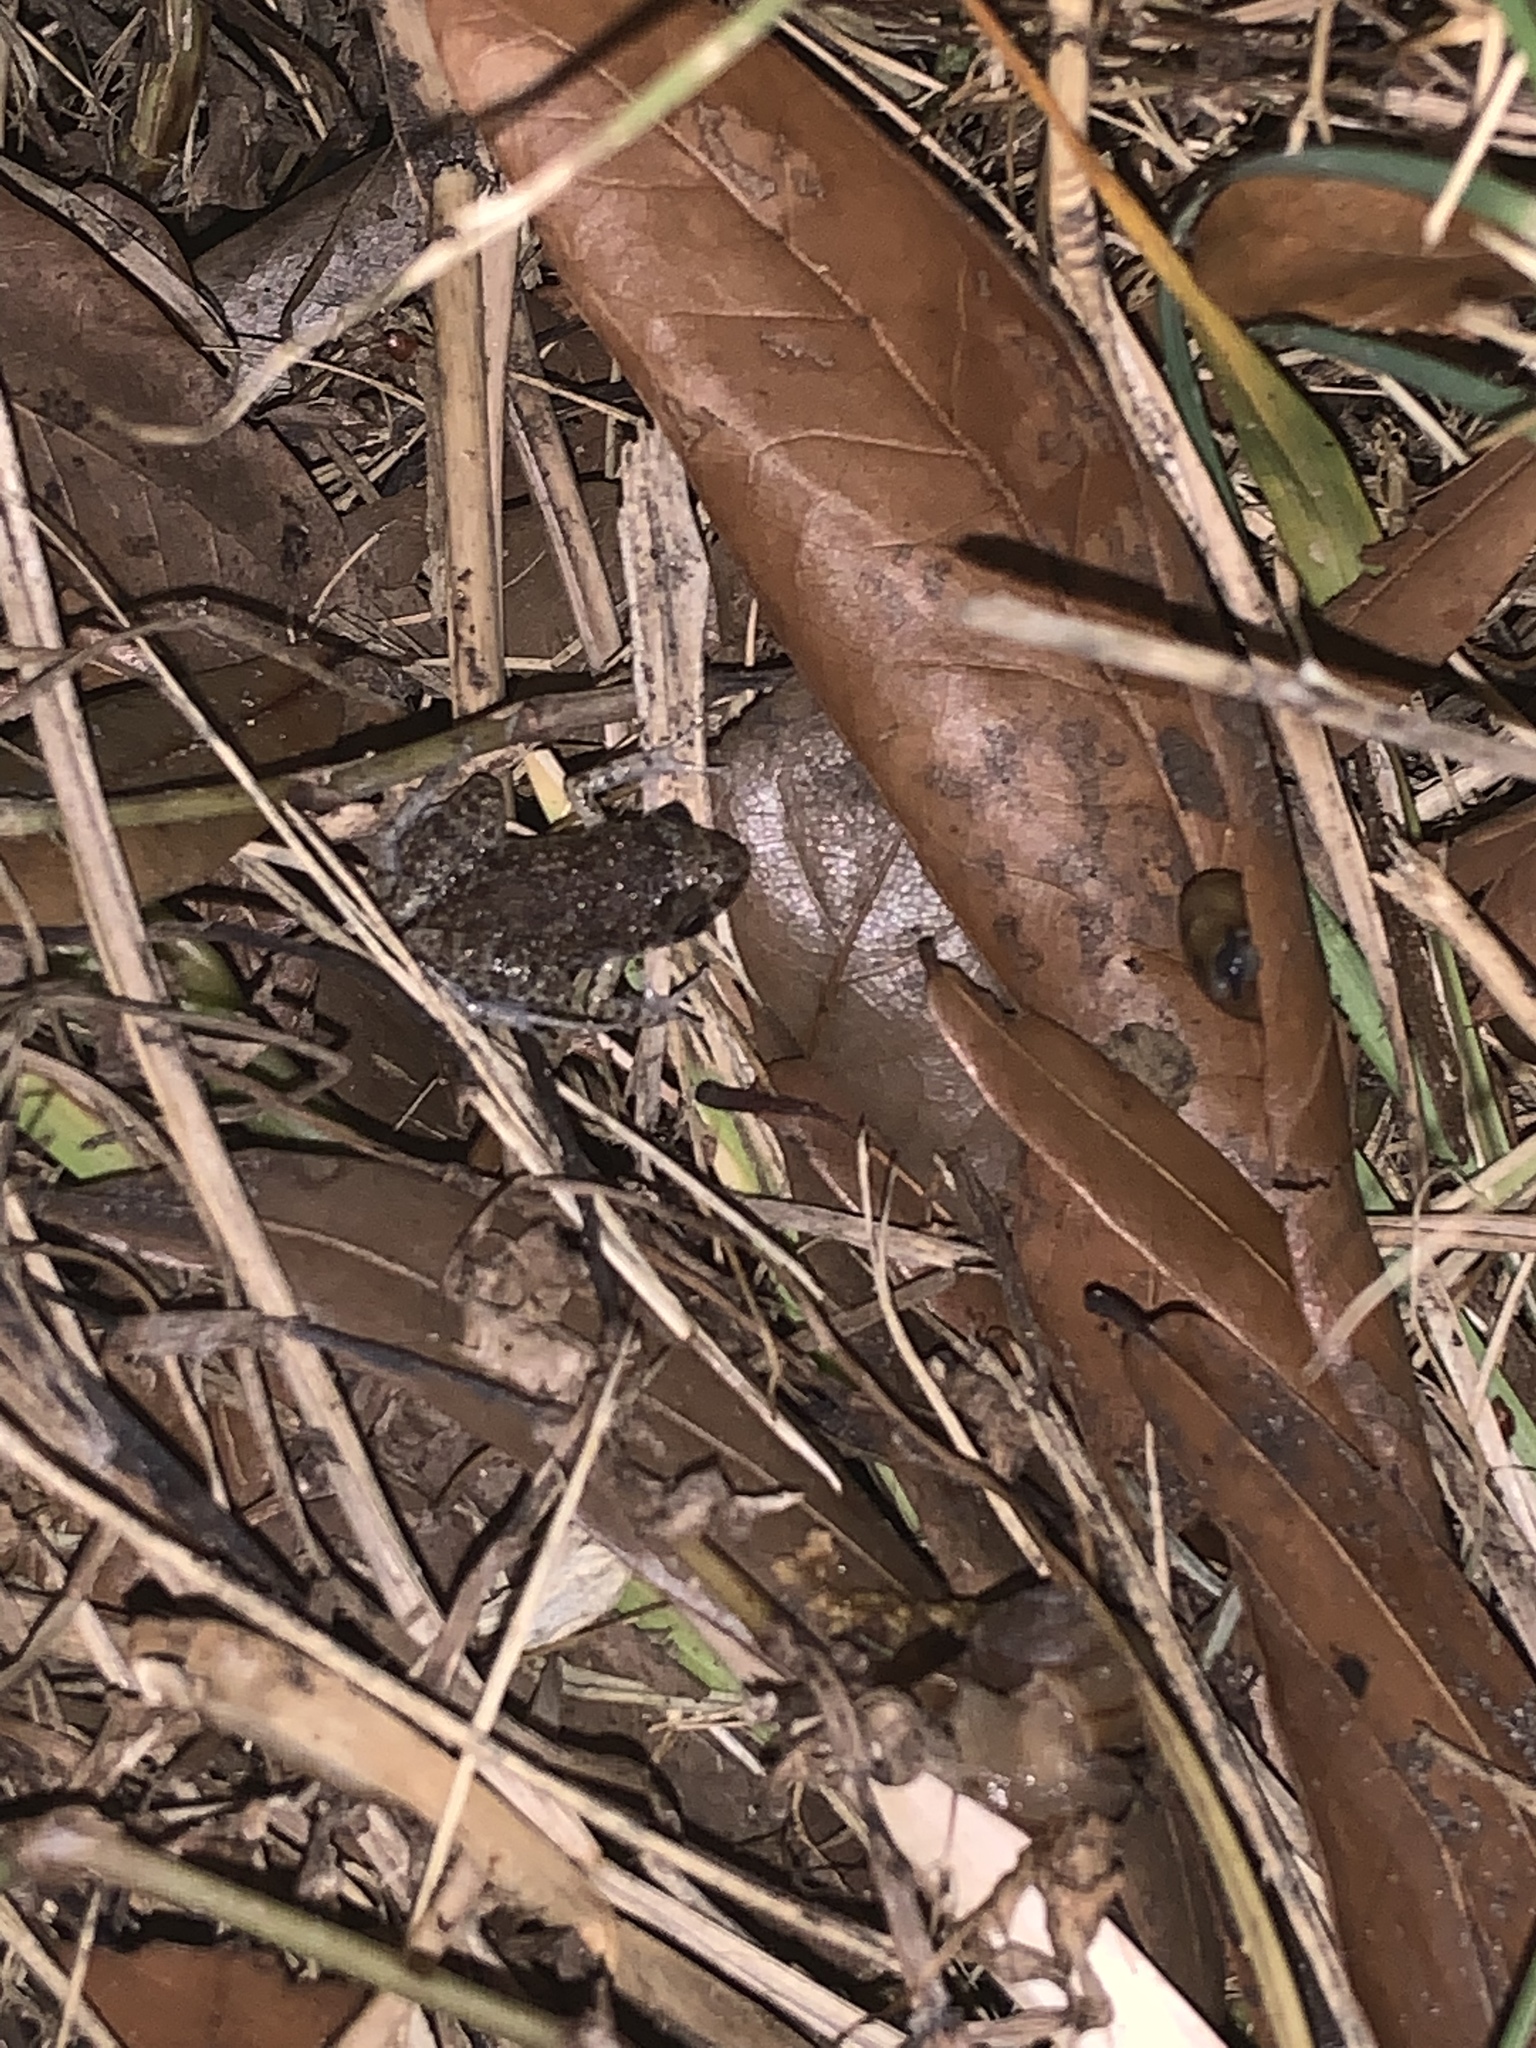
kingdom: Animalia
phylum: Chordata
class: Amphibia
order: Anura
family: Eleutherodactylidae
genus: Eleutherodactylus
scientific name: Eleutherodactylus planirostris
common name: Greenhouse frog
